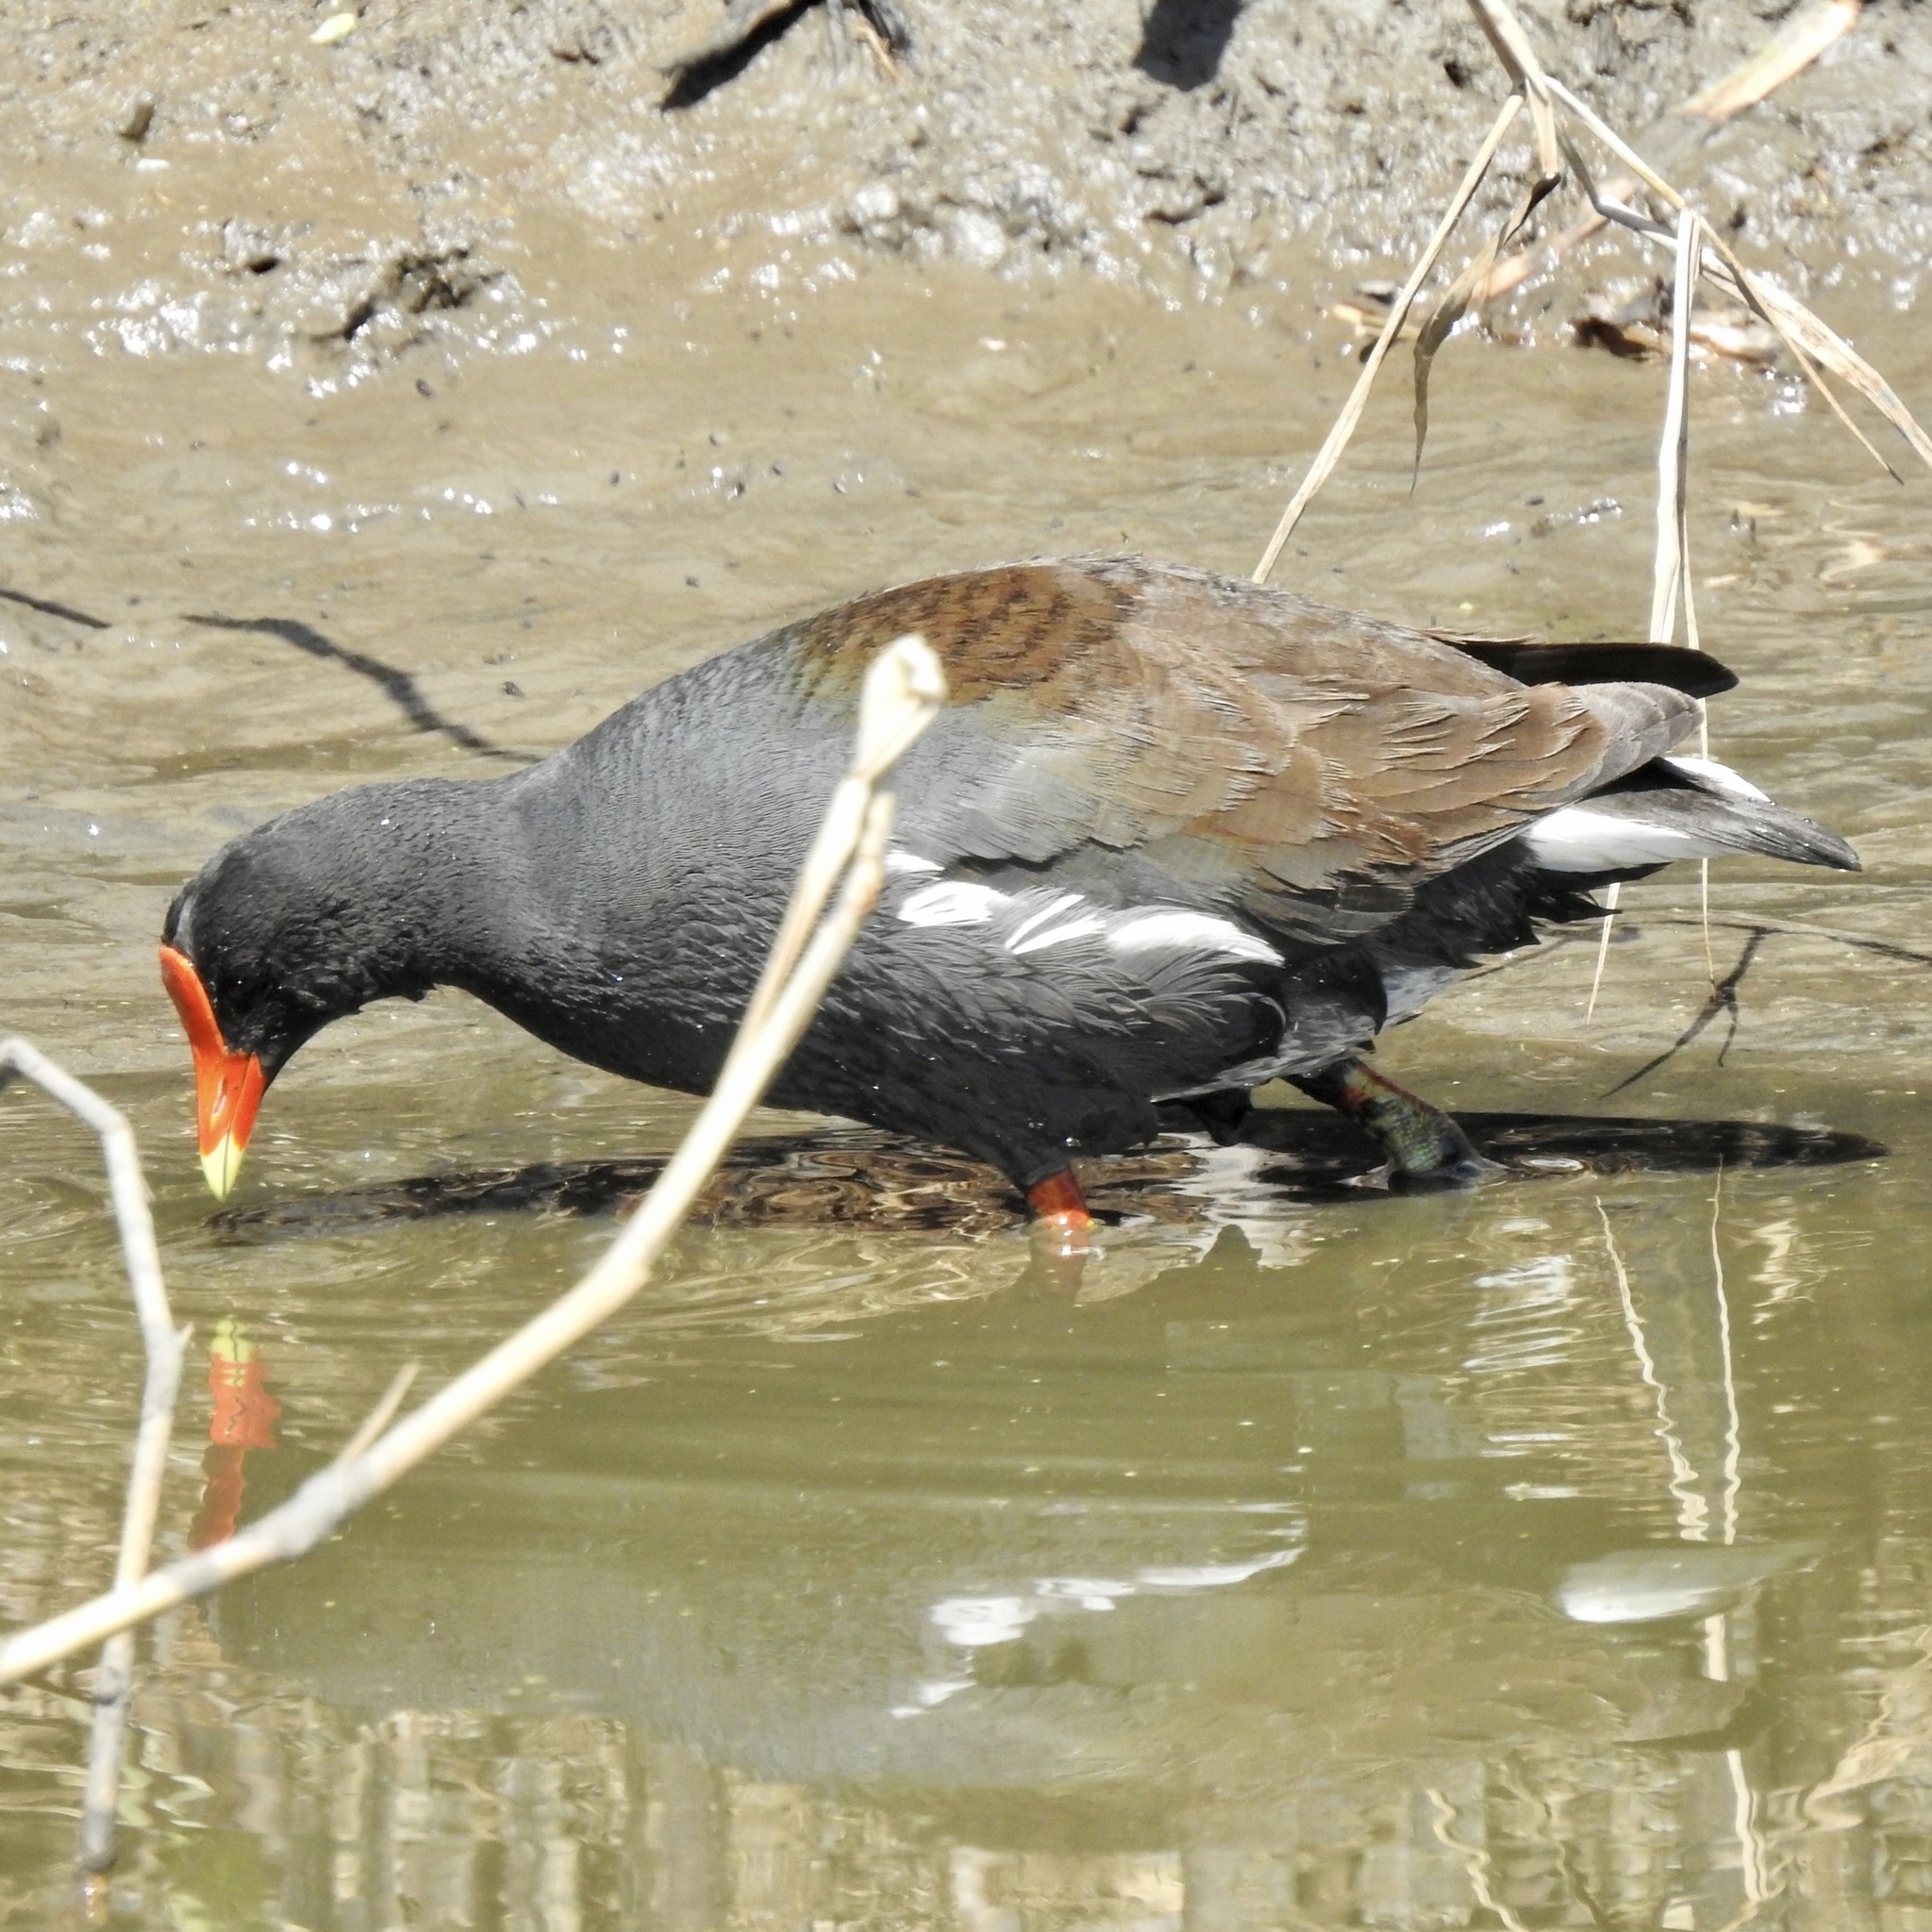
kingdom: Animalia
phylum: Chordata
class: Aves
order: Gruiformes
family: Rallidae
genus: Gallinula
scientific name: Gallinula chloropus
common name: Common moorhen
